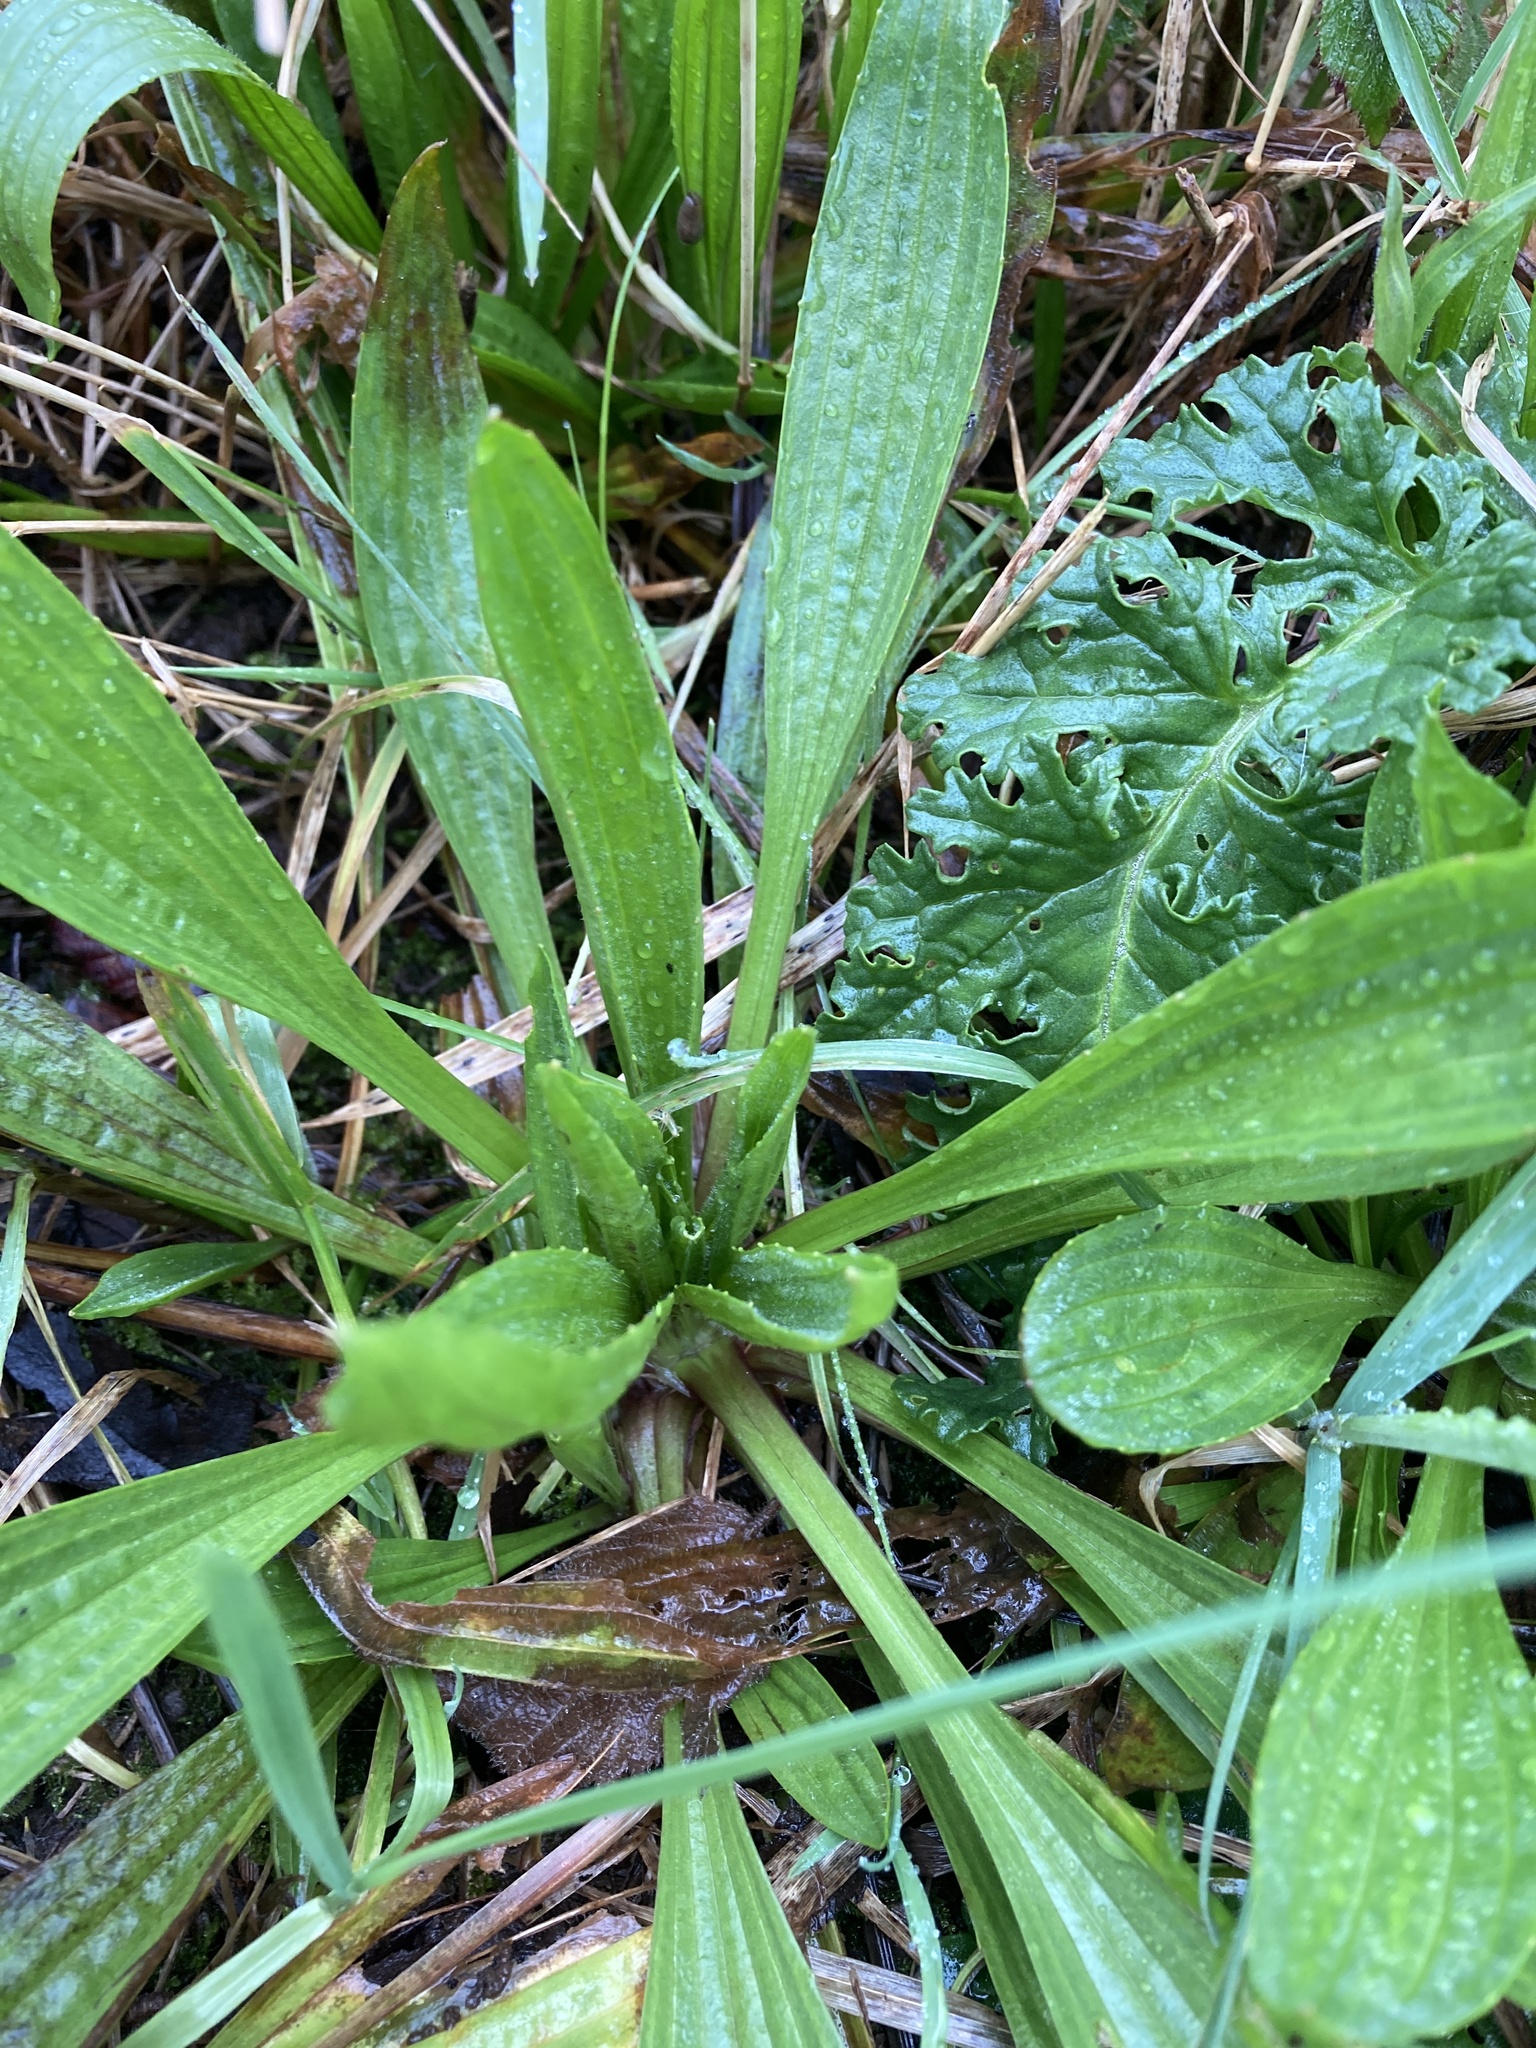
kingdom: Plantae
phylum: Tracheophyta
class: Magnoliopsida
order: Lamiales
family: Plantaginaceae
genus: Plantago
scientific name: Plantago lanceolata
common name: Ribwort plantain
